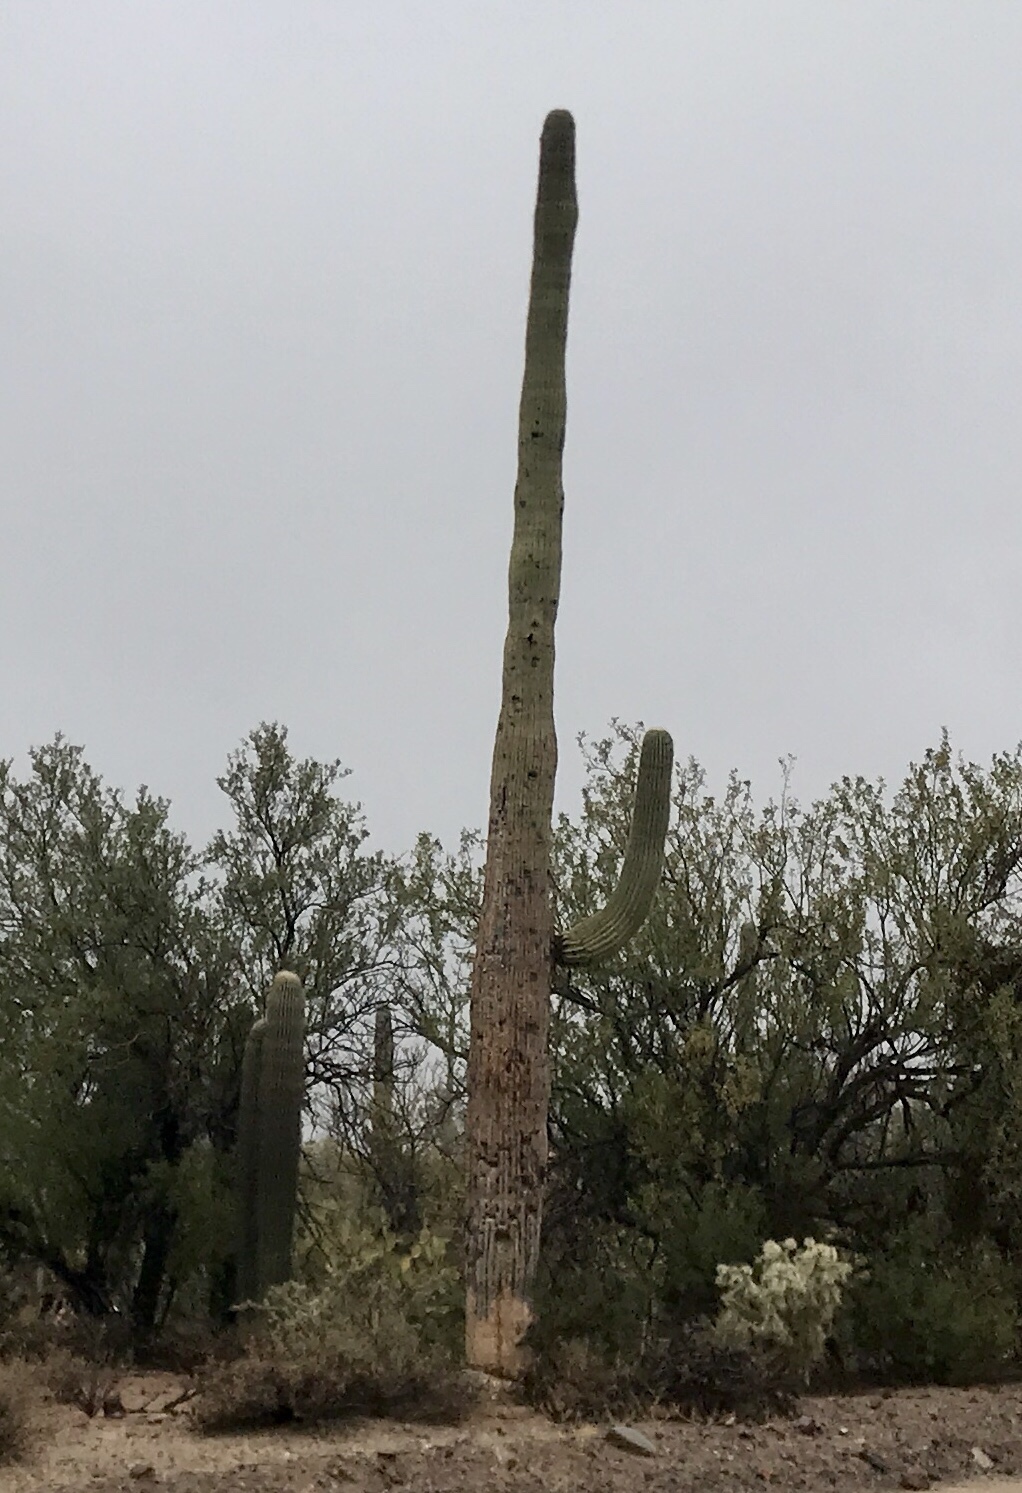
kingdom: Plantae
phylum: Tracheophyta
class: Magnoliopsida
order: Caryophyllales
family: Cactaceae
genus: Carnegiea
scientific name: Carnegiea gigantea
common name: Saguaro
